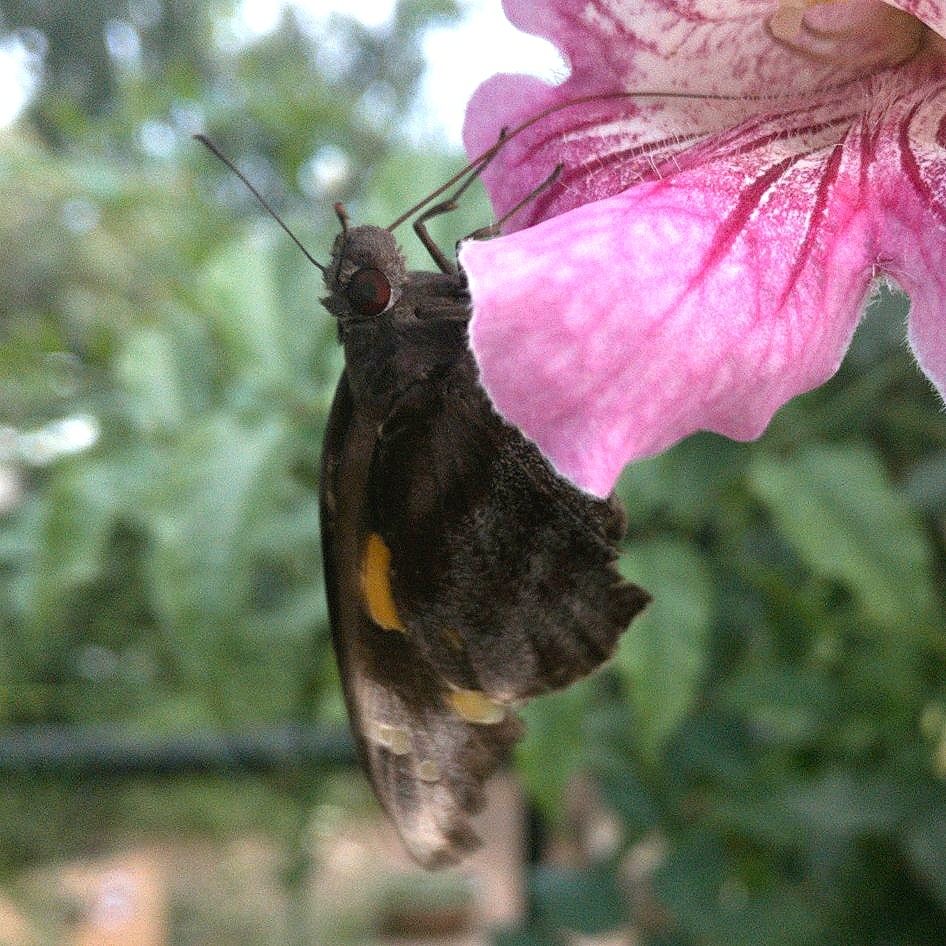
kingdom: Animalia
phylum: Arthropoda
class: Insecta
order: Lepidoptera
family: Hesperiidae
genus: Gangara
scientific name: Gangara thyrsis
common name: Giant redeye
